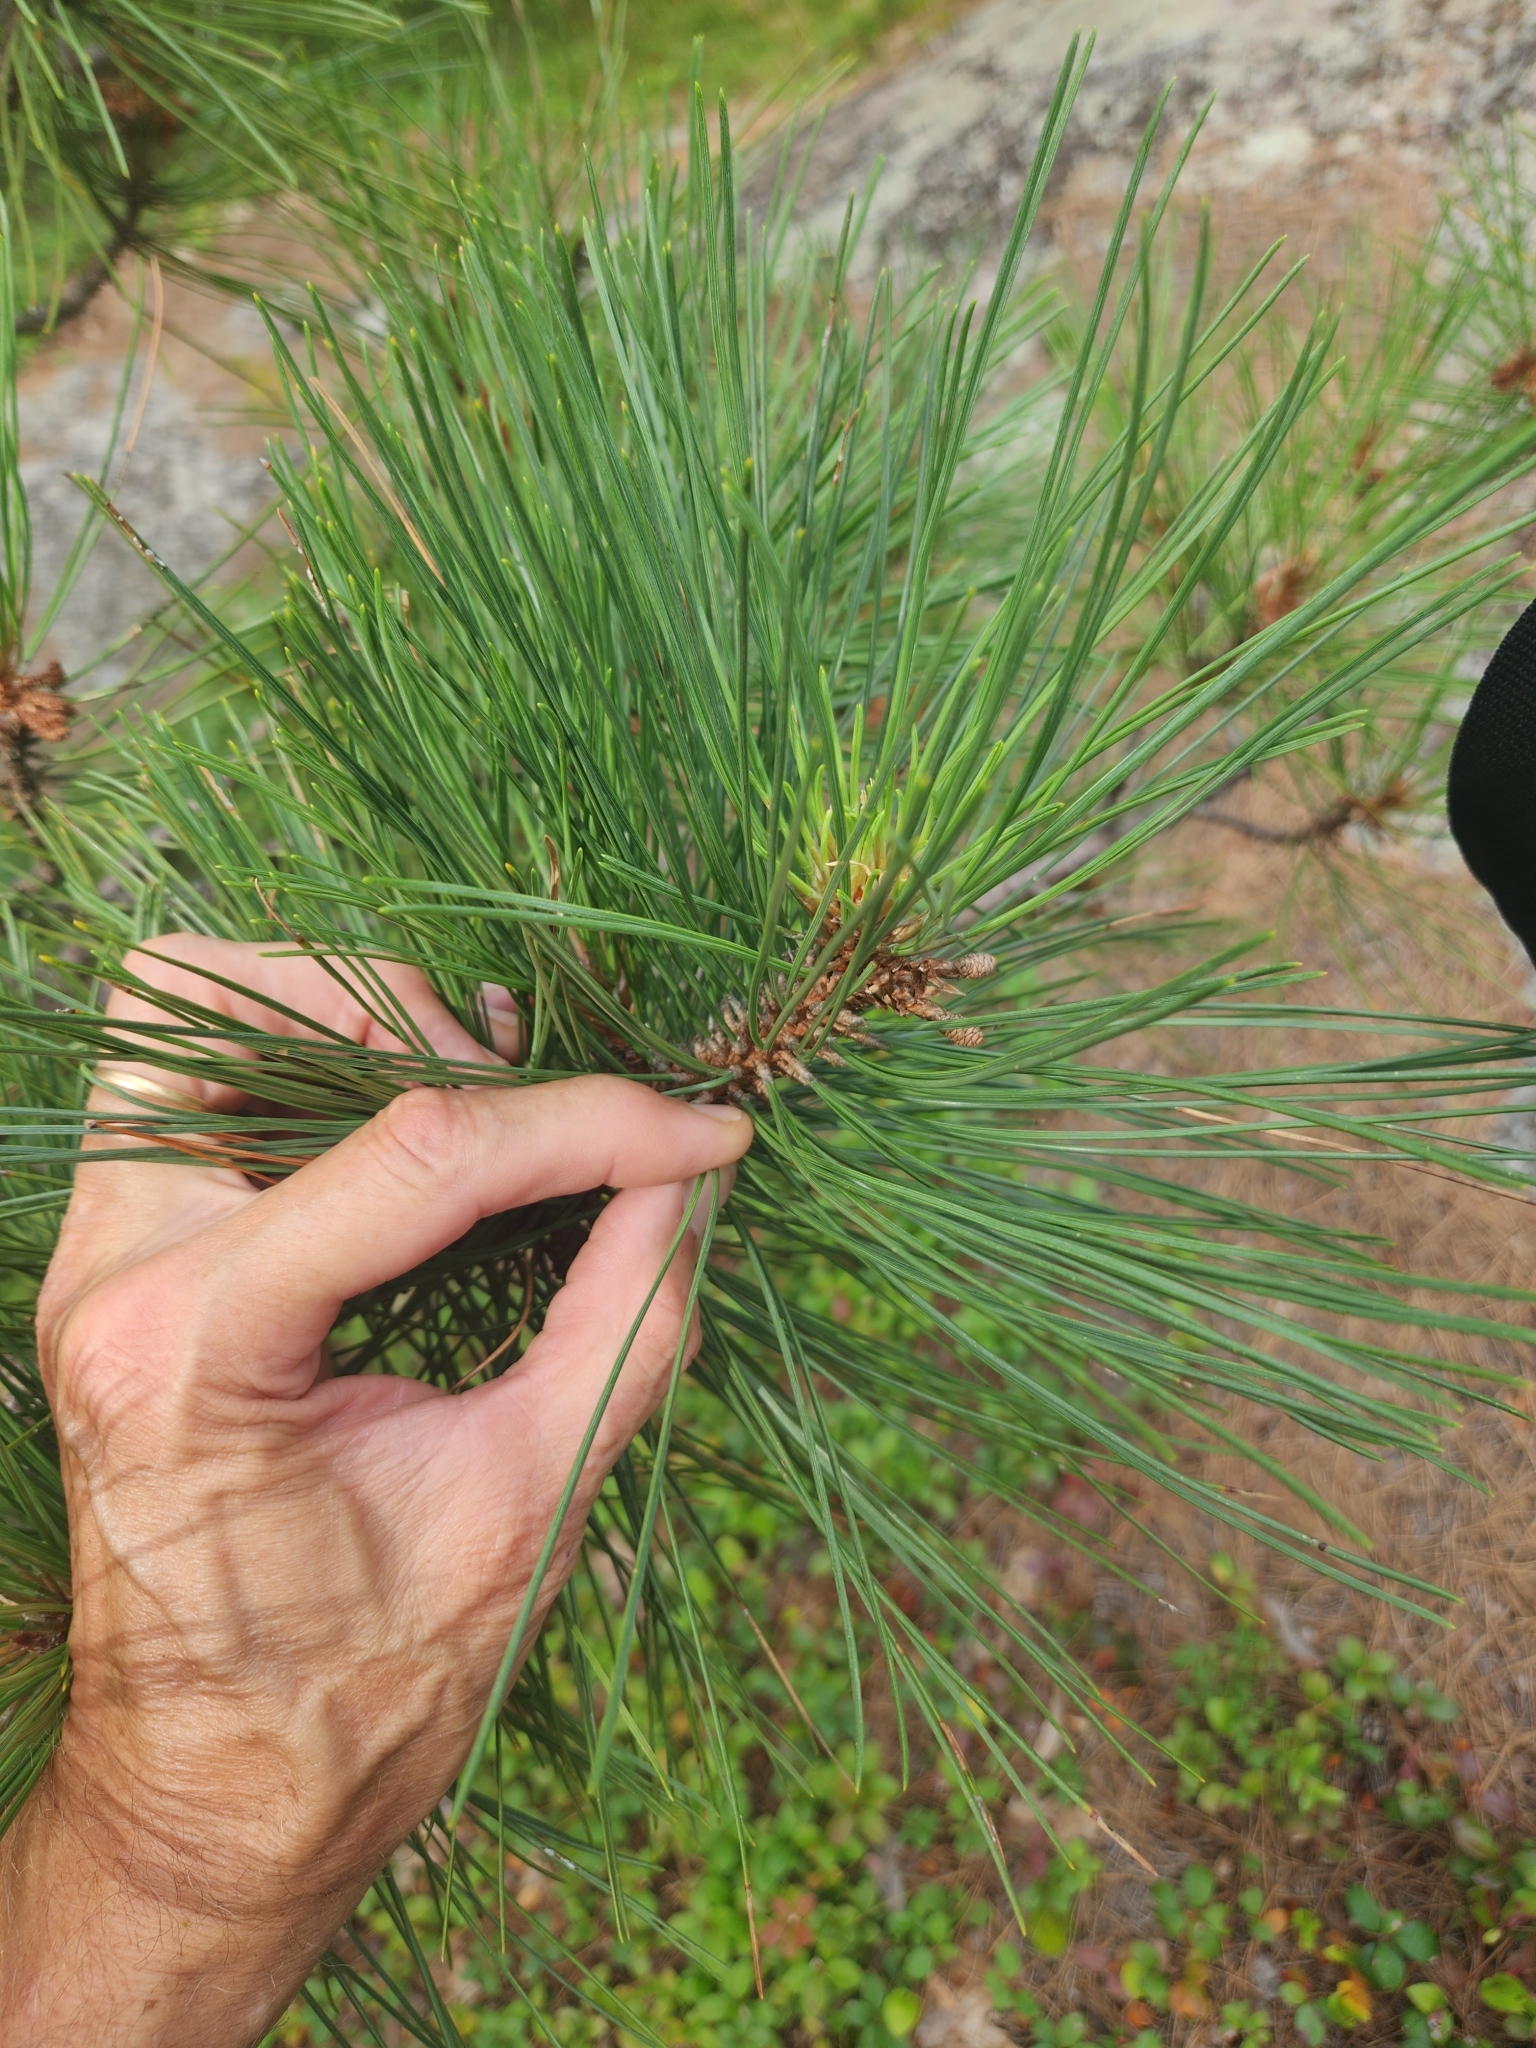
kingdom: Plantae
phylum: Tracheophyta
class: Pinopsida
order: Pinales
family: Pinaceae
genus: Pinus
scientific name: Pinus resinosa
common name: Norway pine
